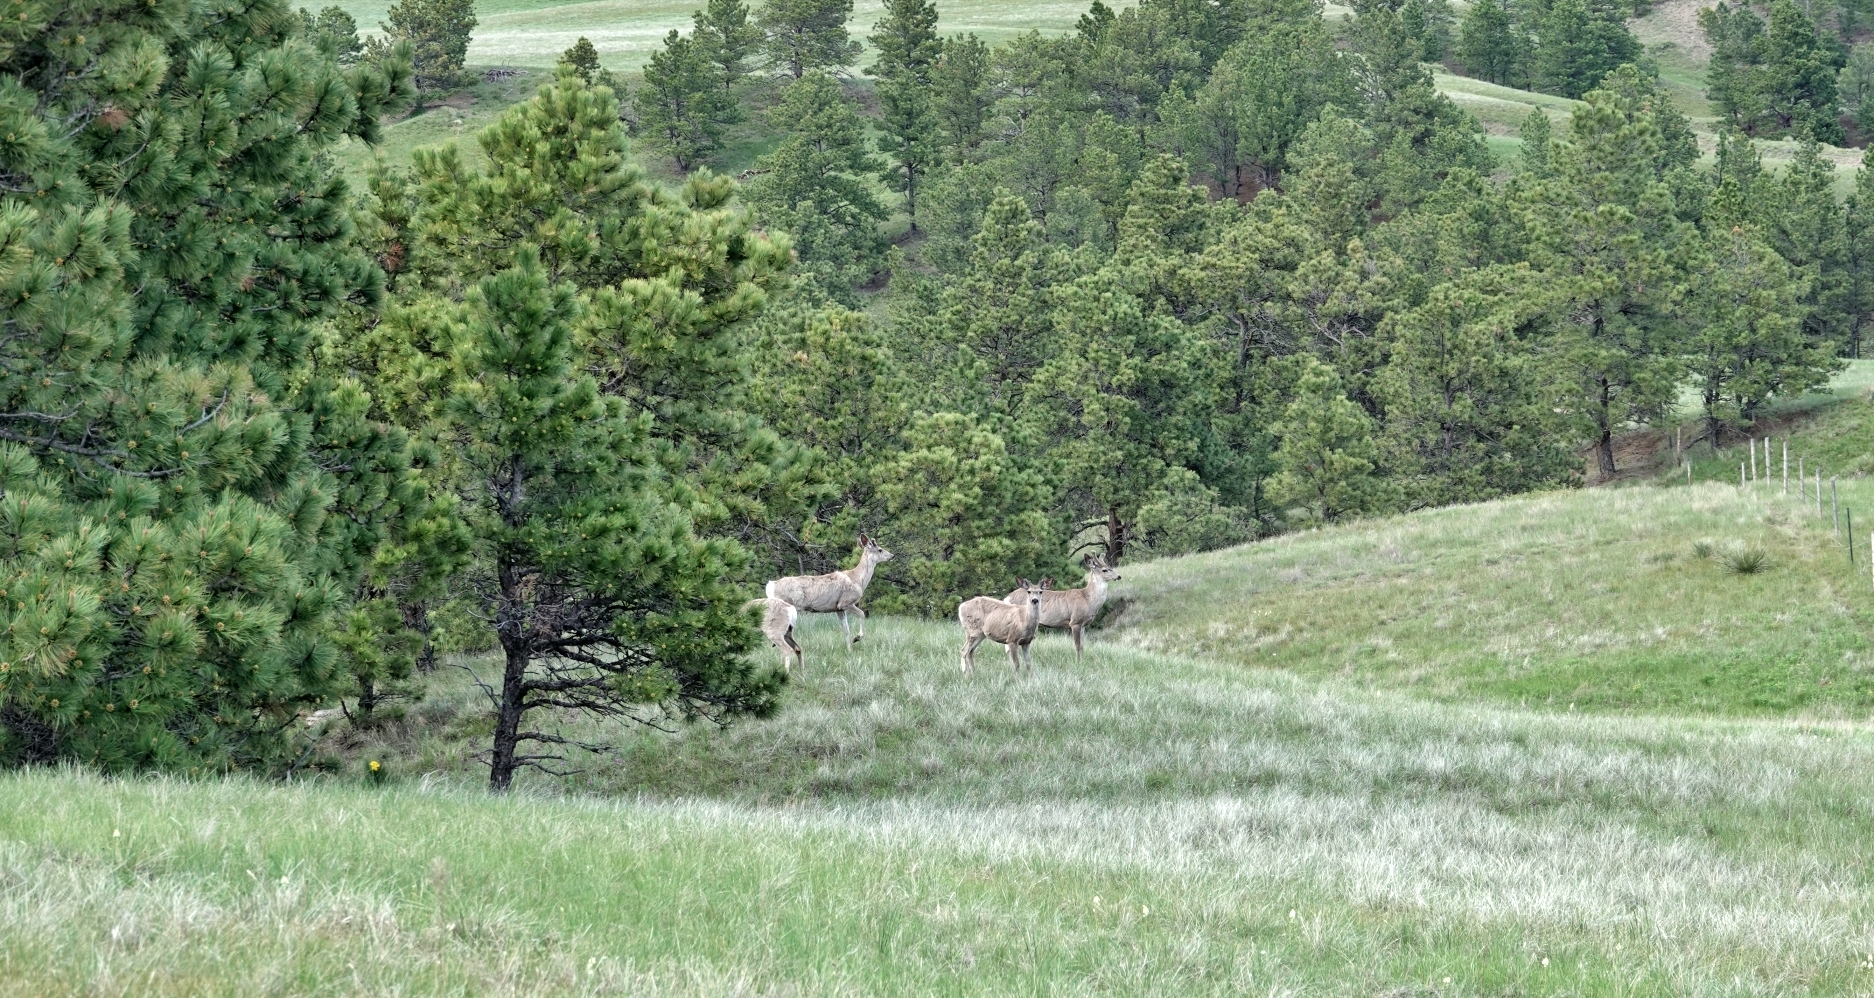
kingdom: Animalia
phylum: Chordata
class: Mammalia
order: Artiodactyla
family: Cervidae
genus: Odocoileus
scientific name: Odocoileus hemionus
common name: Mule deer
